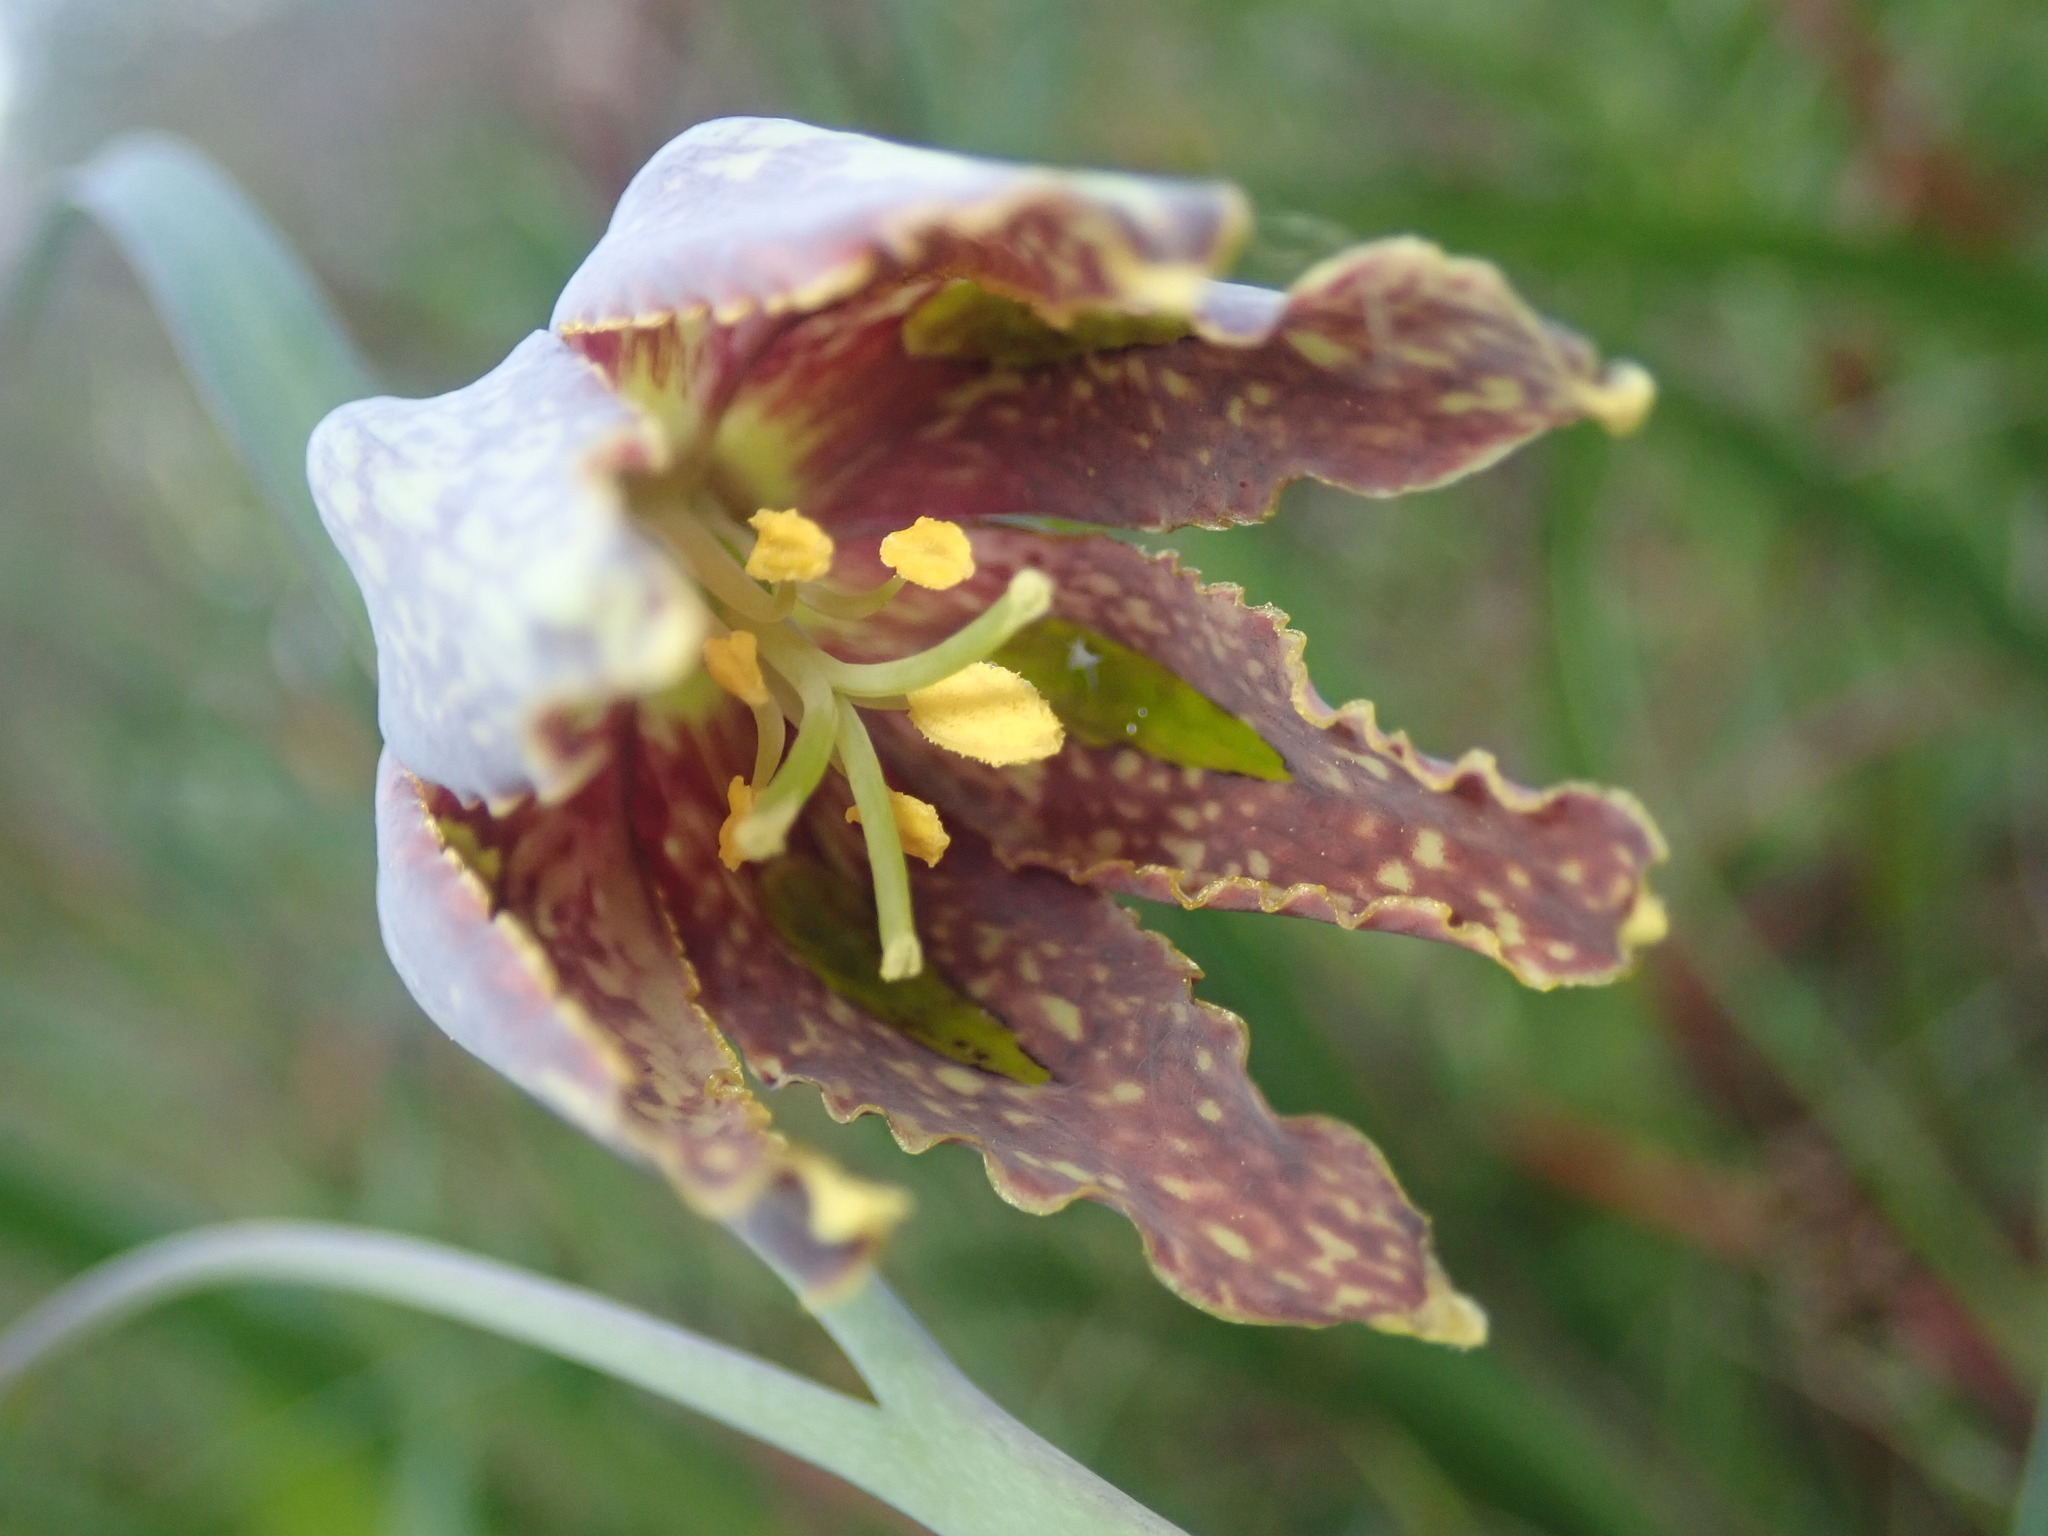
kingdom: Plantae
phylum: Tracheophyta
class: Liliopsida
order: Liliales
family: Liliaceae
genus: Fritillaria
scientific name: Fritillaria affinis
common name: Ojai fritillary
